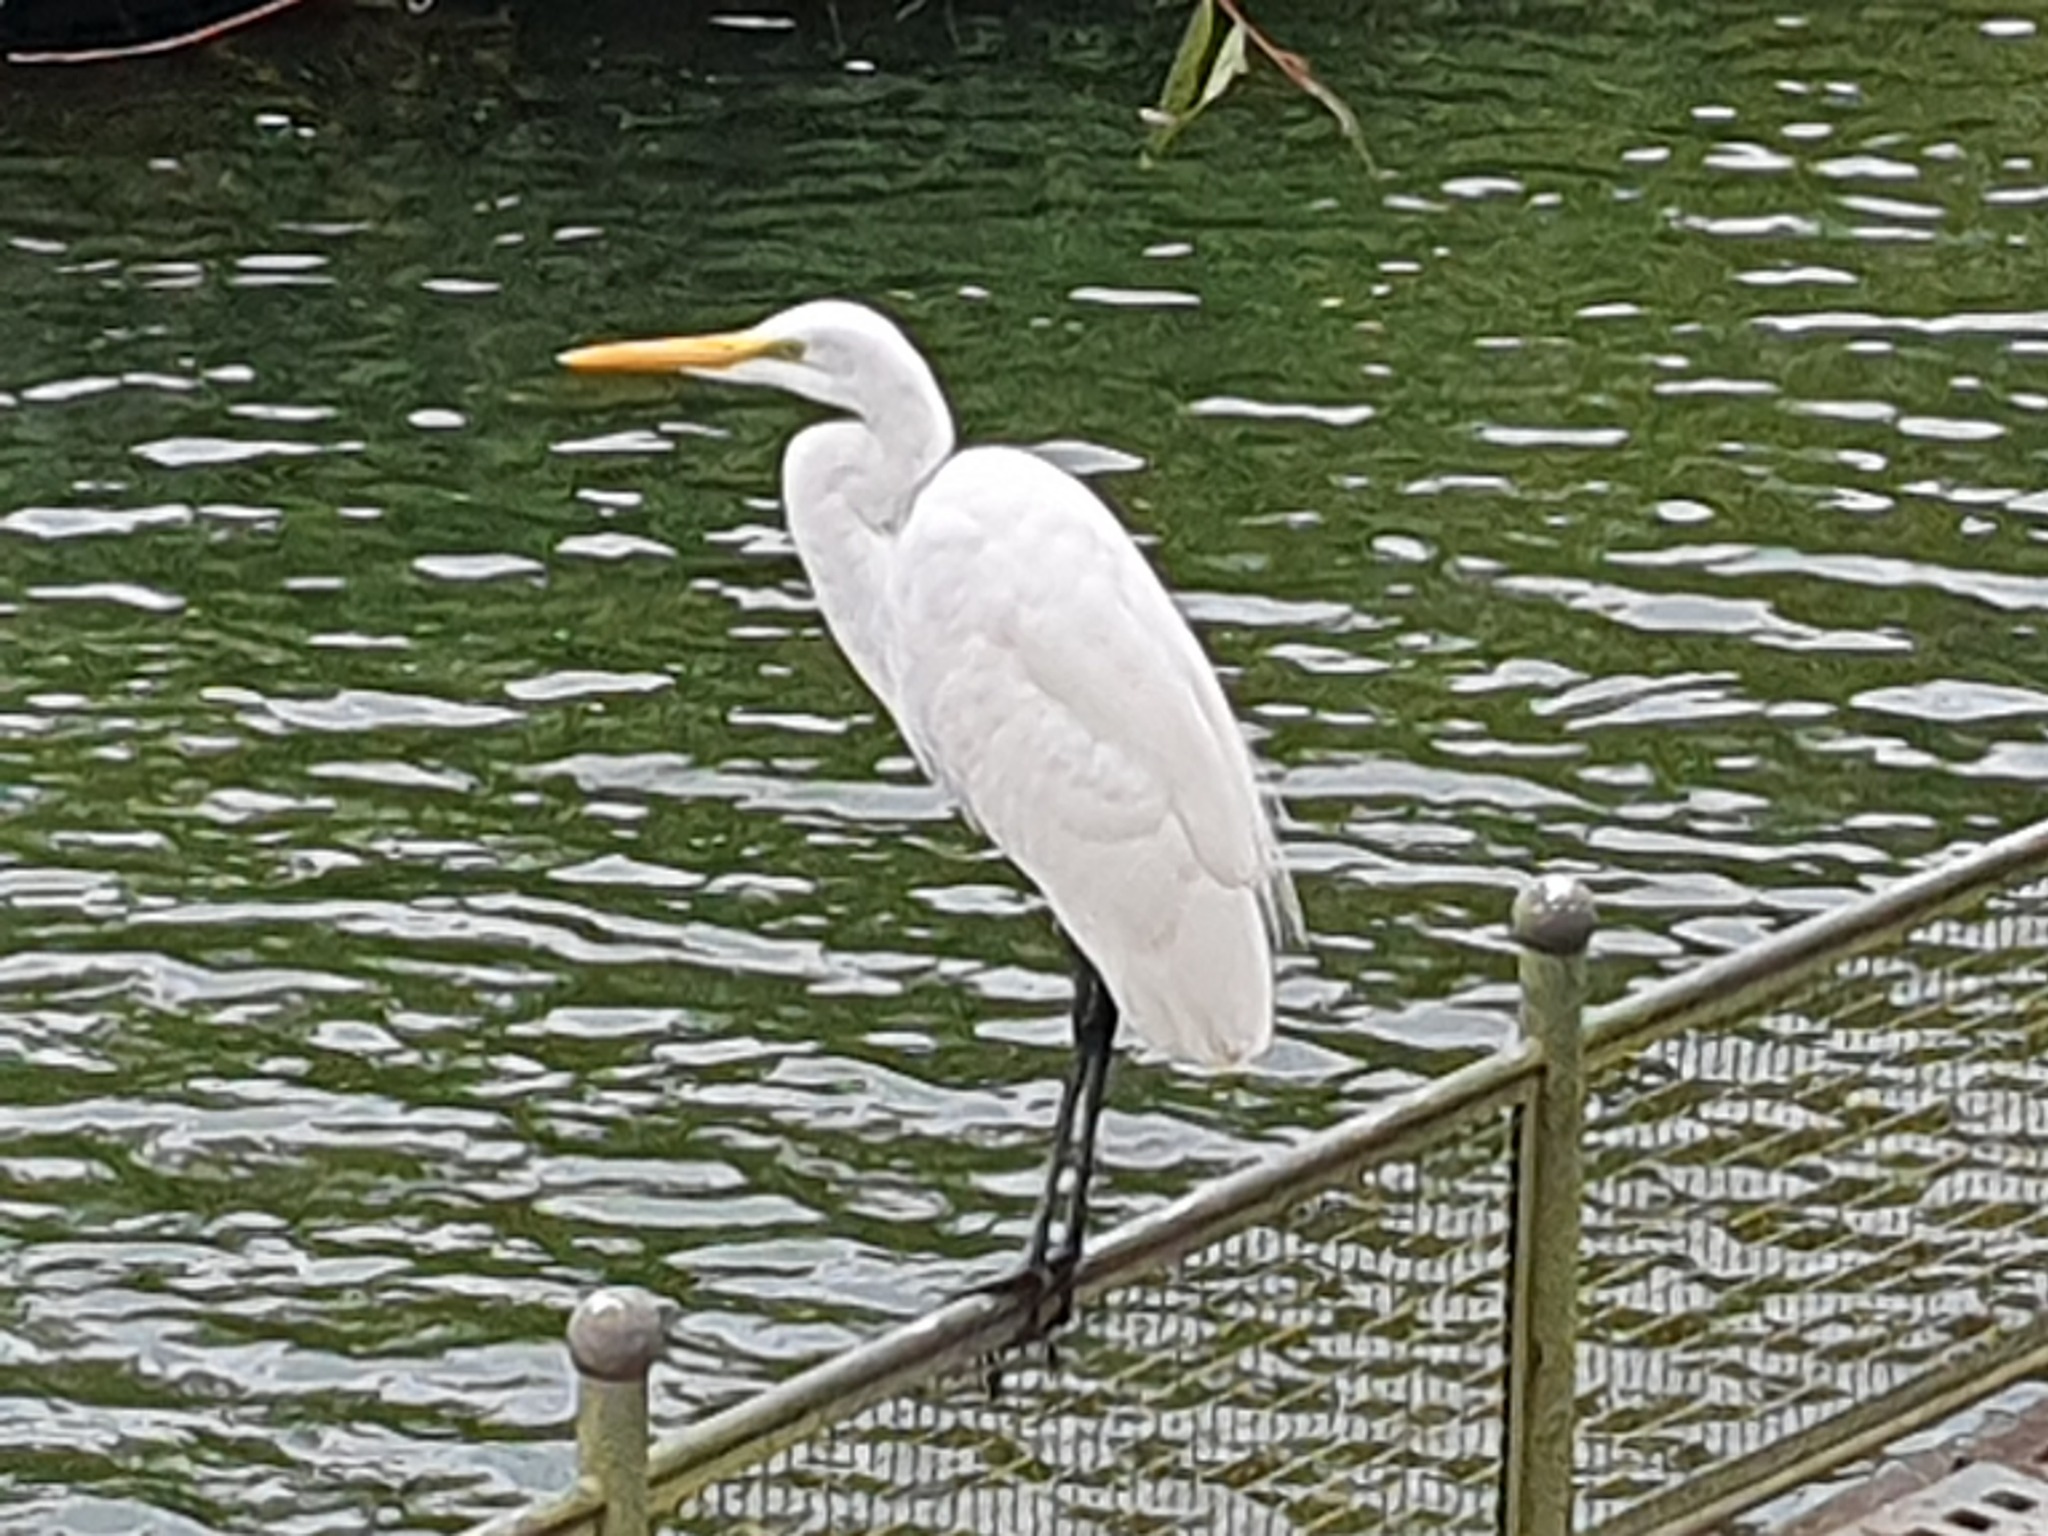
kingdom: Animalia
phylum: Chordata
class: Aves
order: Pelecaniformes
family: Ardeidae
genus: Ardea
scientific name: Ardea alba
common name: Great egret
